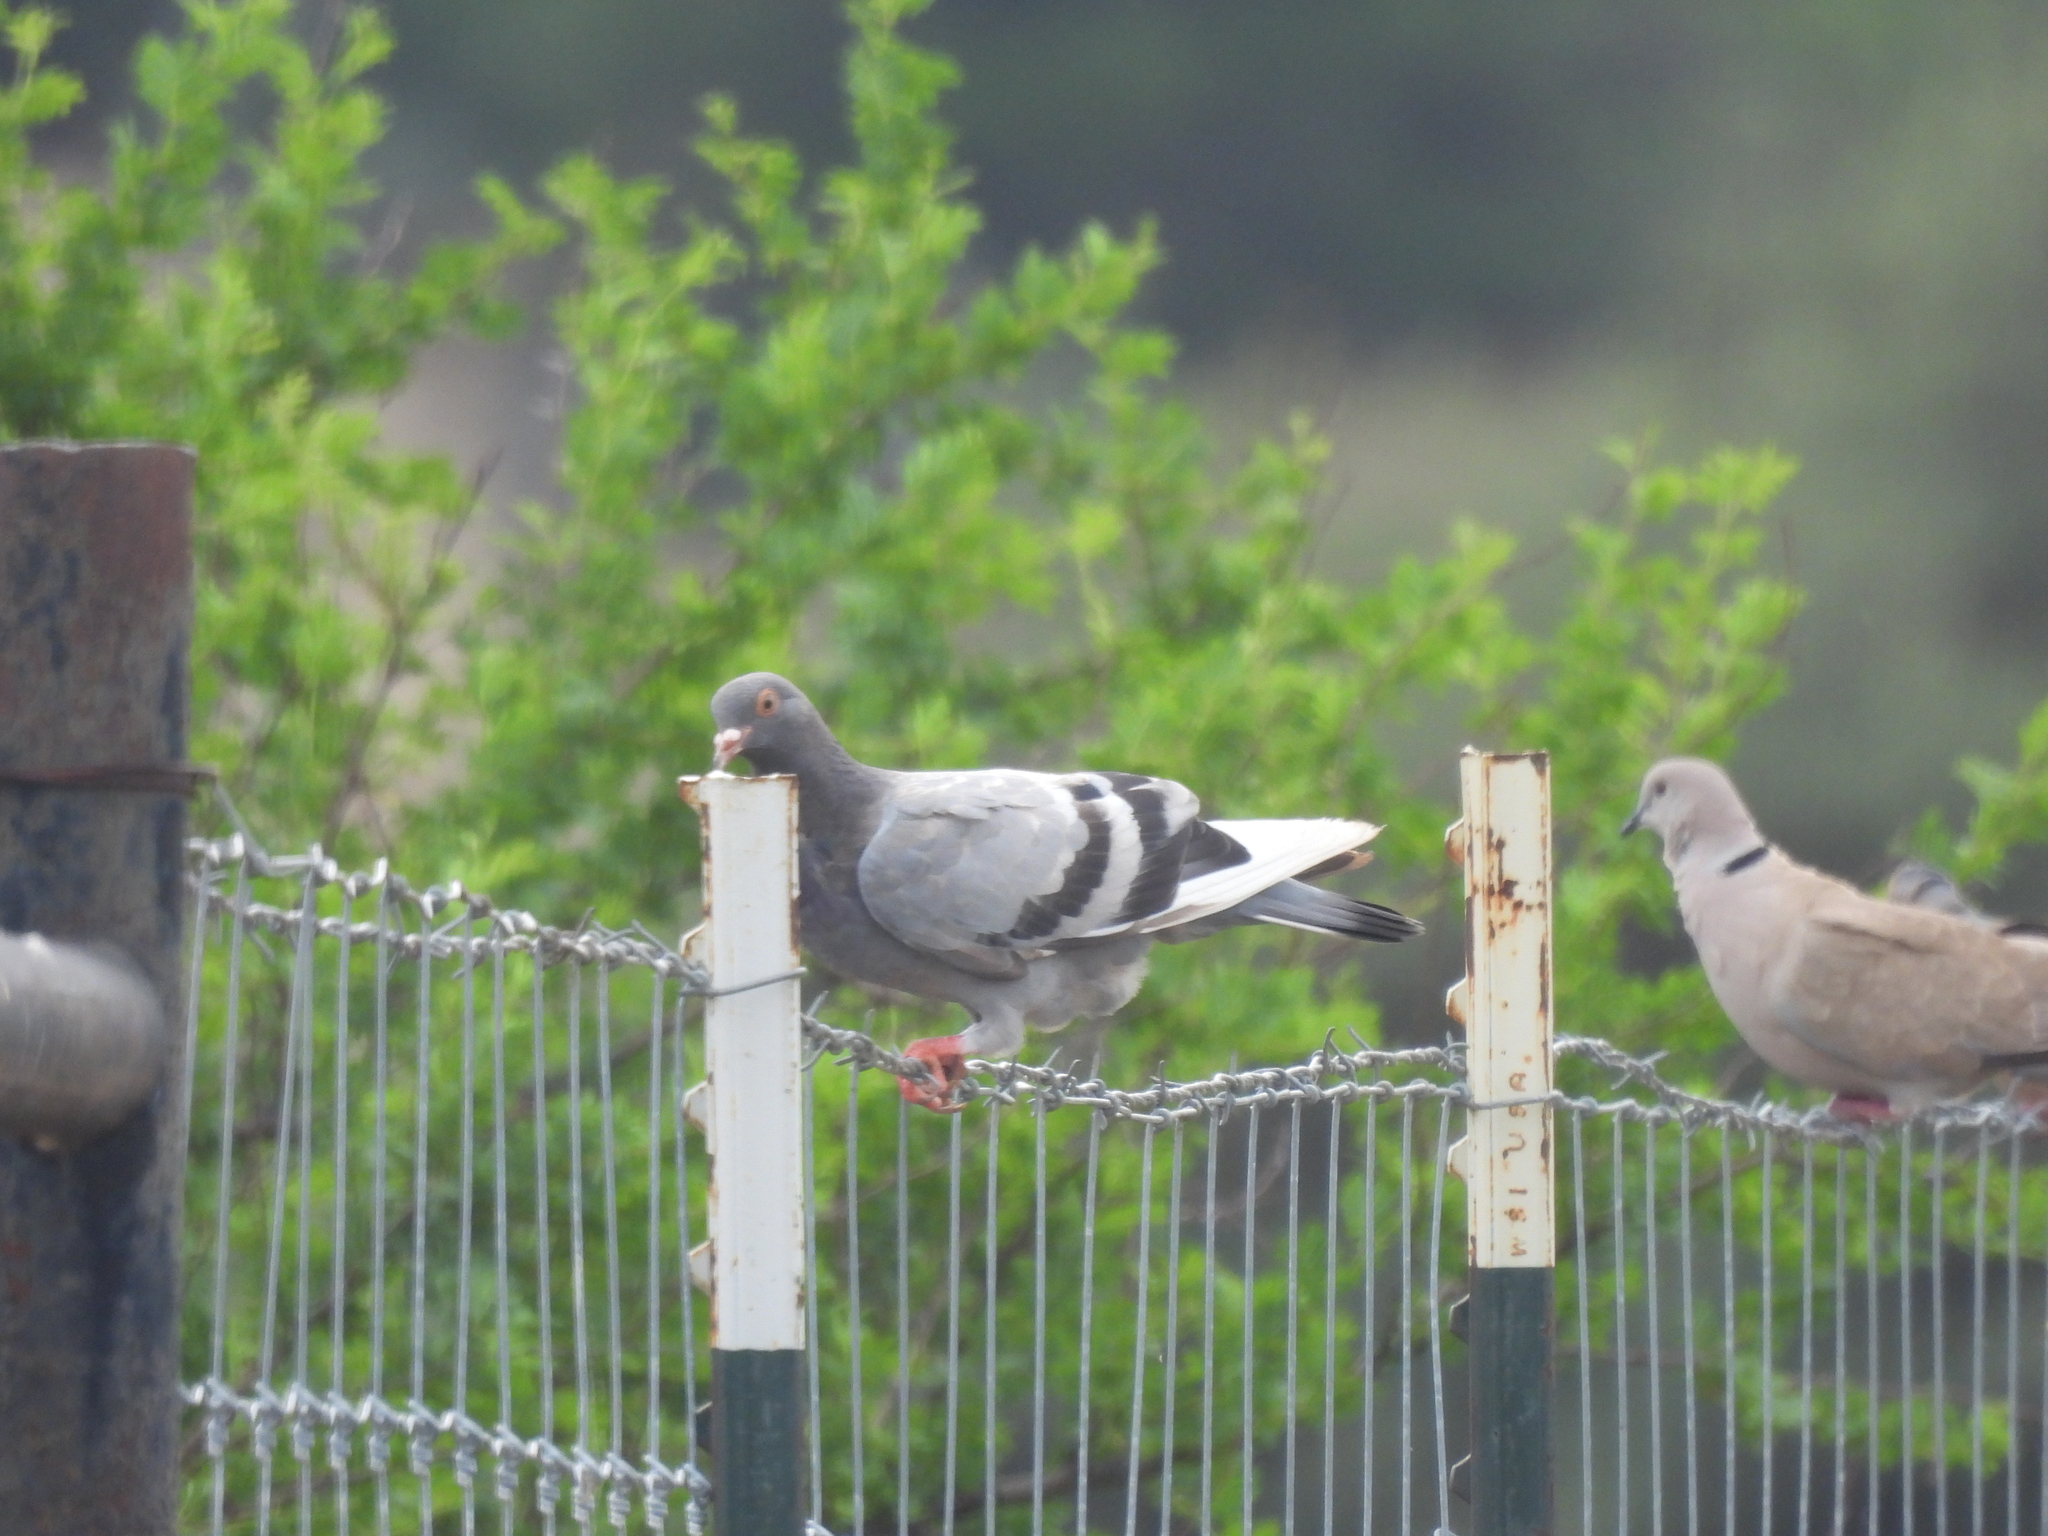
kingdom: Animalia
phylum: Chordata
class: Aves
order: Columbiformes
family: Columbidae
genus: Columba
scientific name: Columba livia
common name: Rock pigeon
